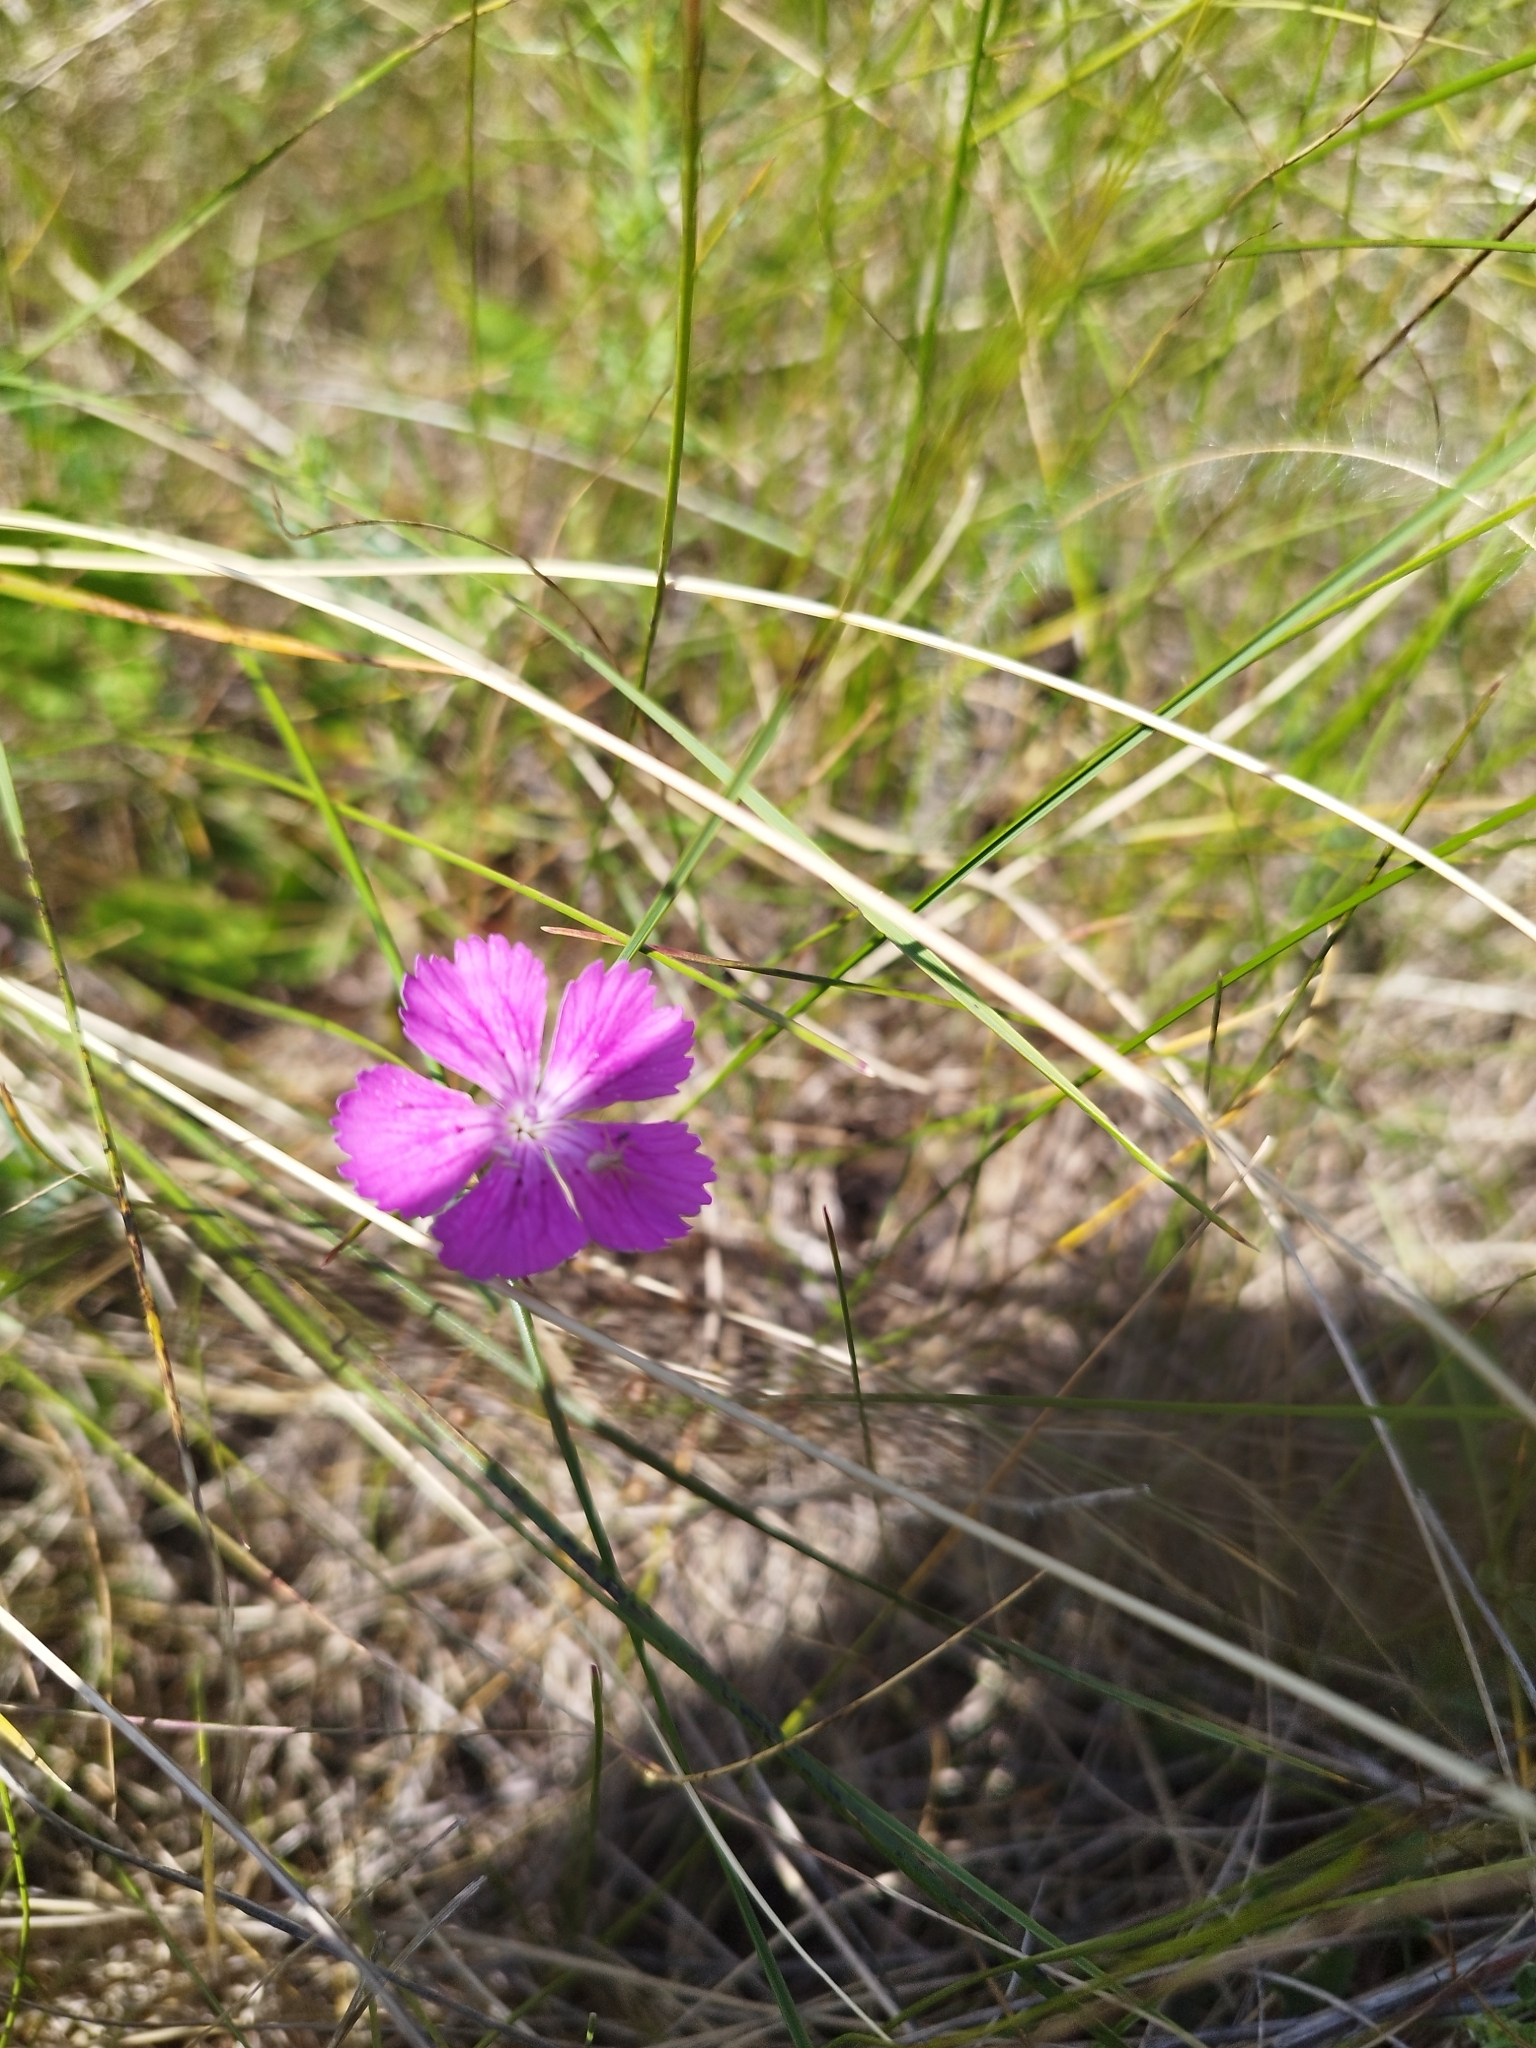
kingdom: Plantae
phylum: Tracheophyta
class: Magnoliopsida
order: Caryophyllales
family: Caryophyllaceae
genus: Dianthus
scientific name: Dianthus chinensis
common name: Rainbow pink
